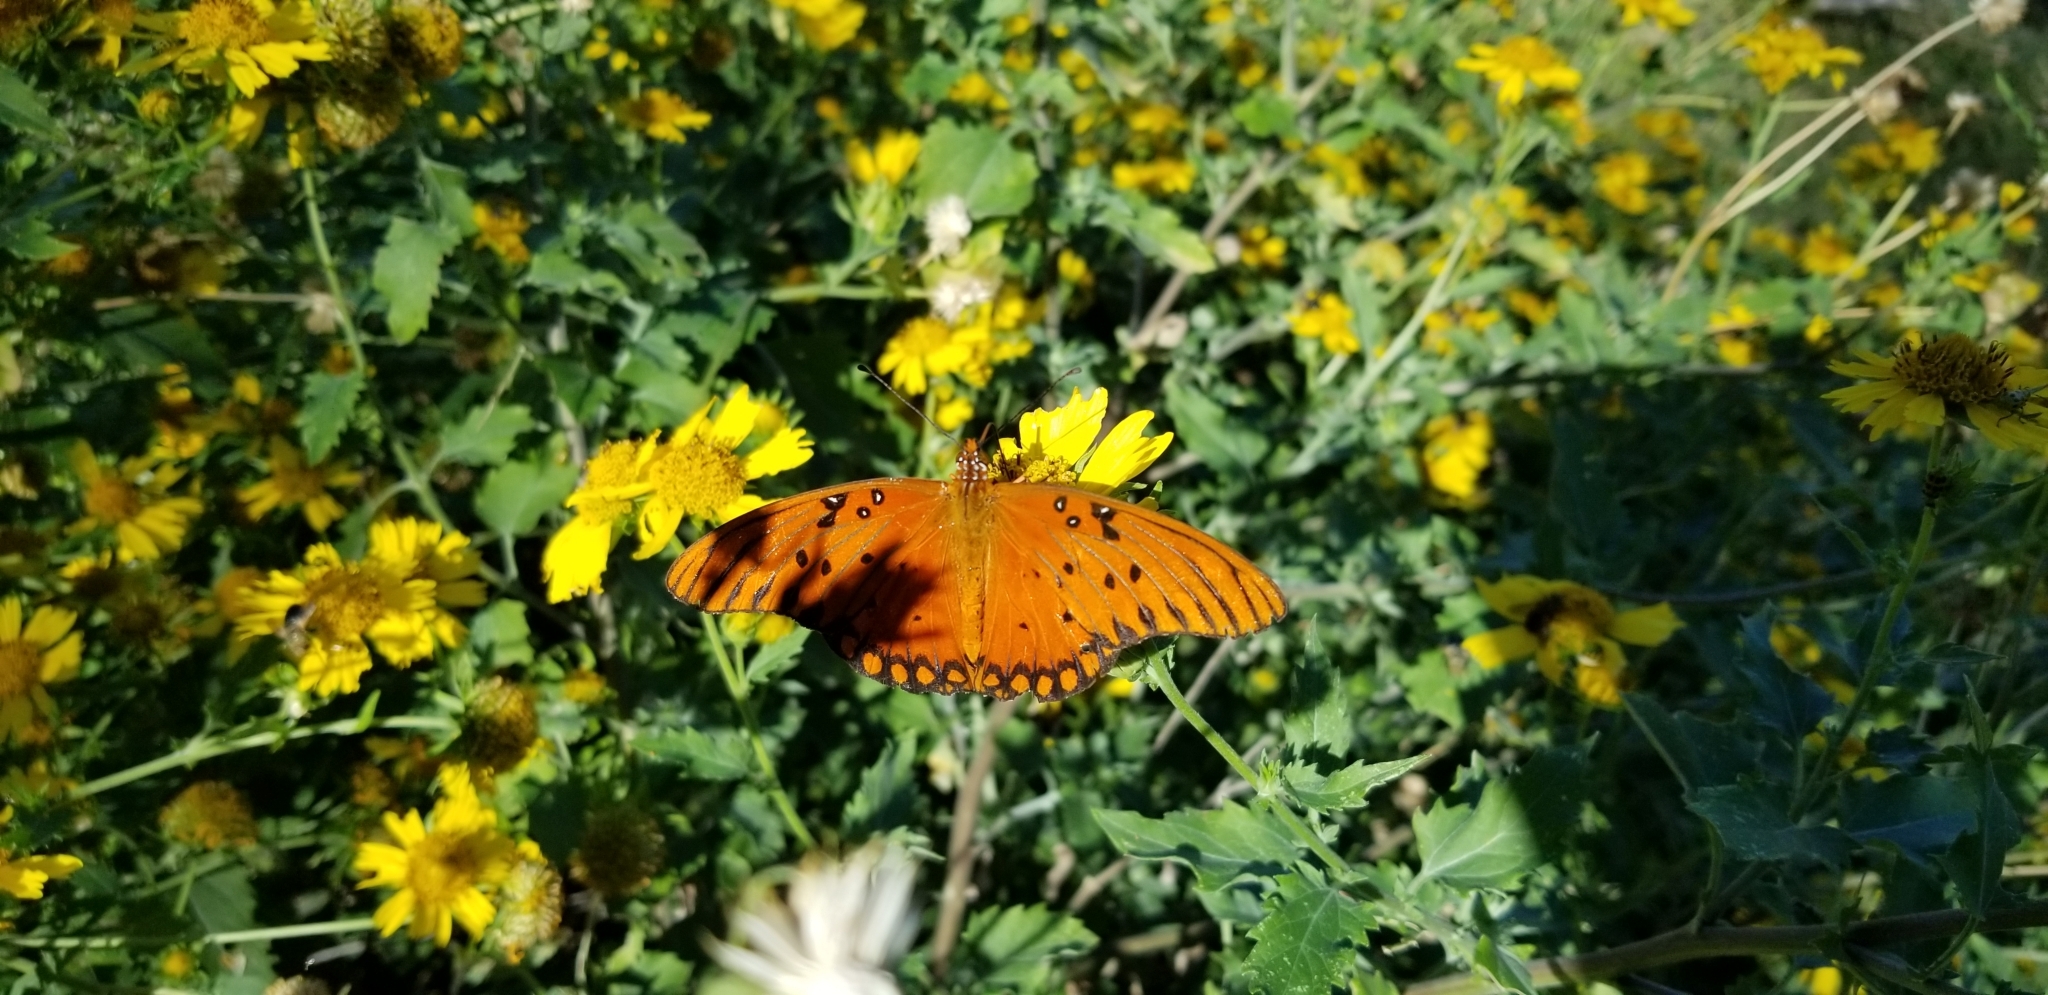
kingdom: Animalia
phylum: Arthropoda
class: Insecta
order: Lepidoptera
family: Nymphalidae
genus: Dione
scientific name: Dione vanillae
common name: Gulf fritillary
